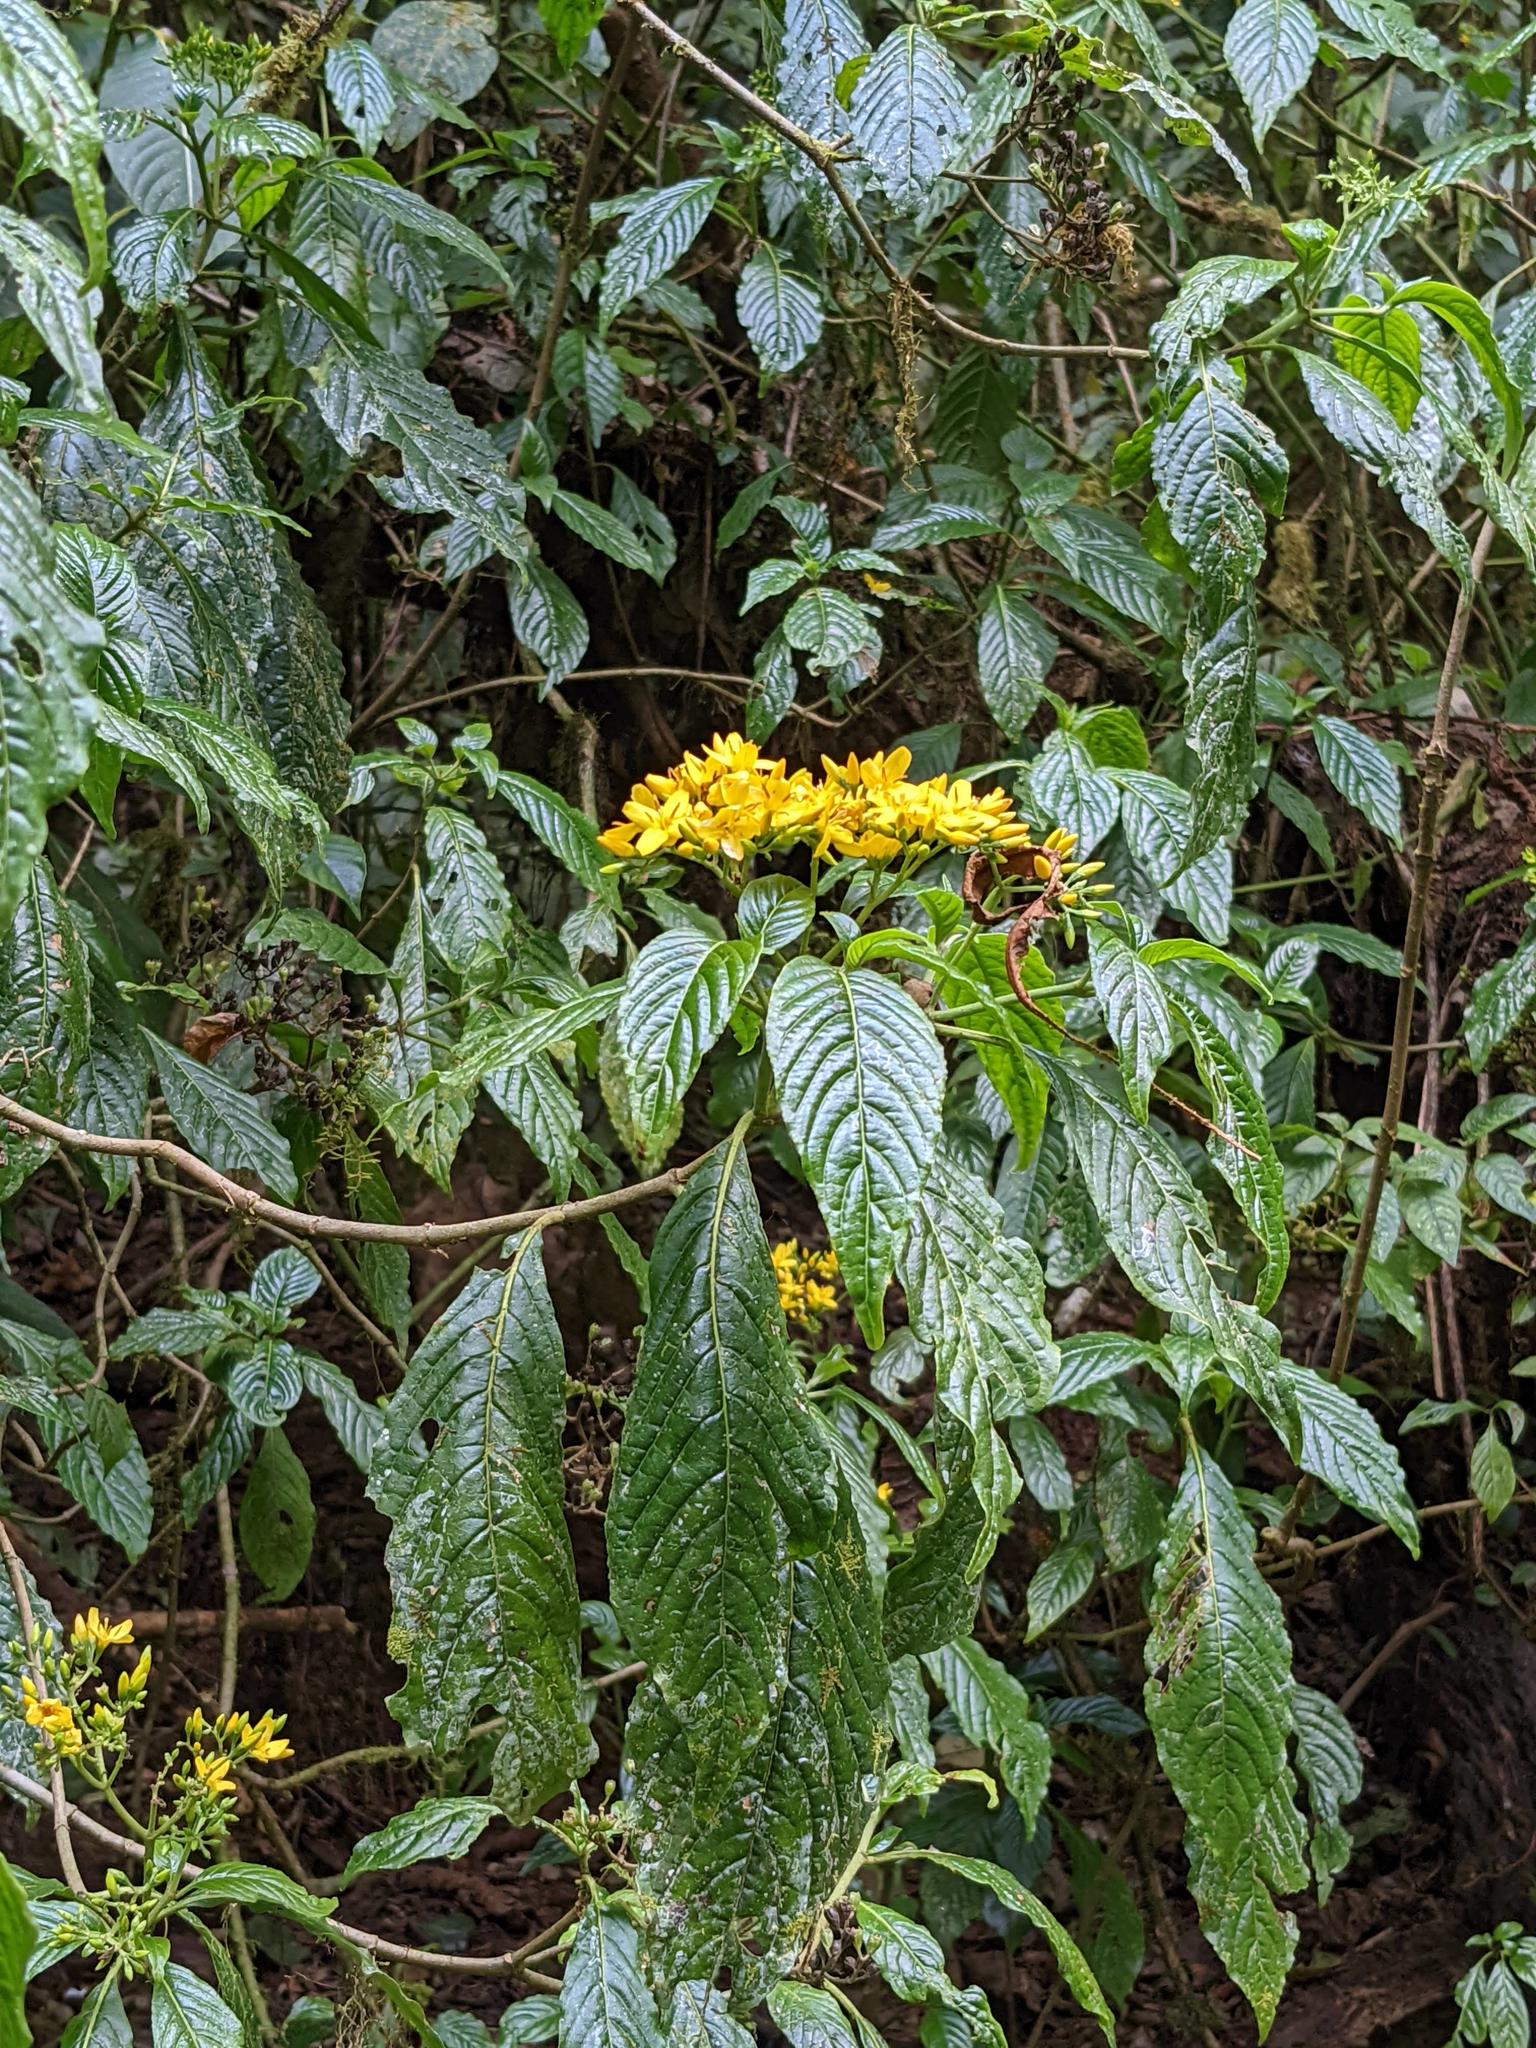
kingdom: Plantae
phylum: Tracheophyta
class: Magnoliopsida
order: Gentianales
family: Rubiaceae
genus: Deppea
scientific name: Deppea grandiflora
